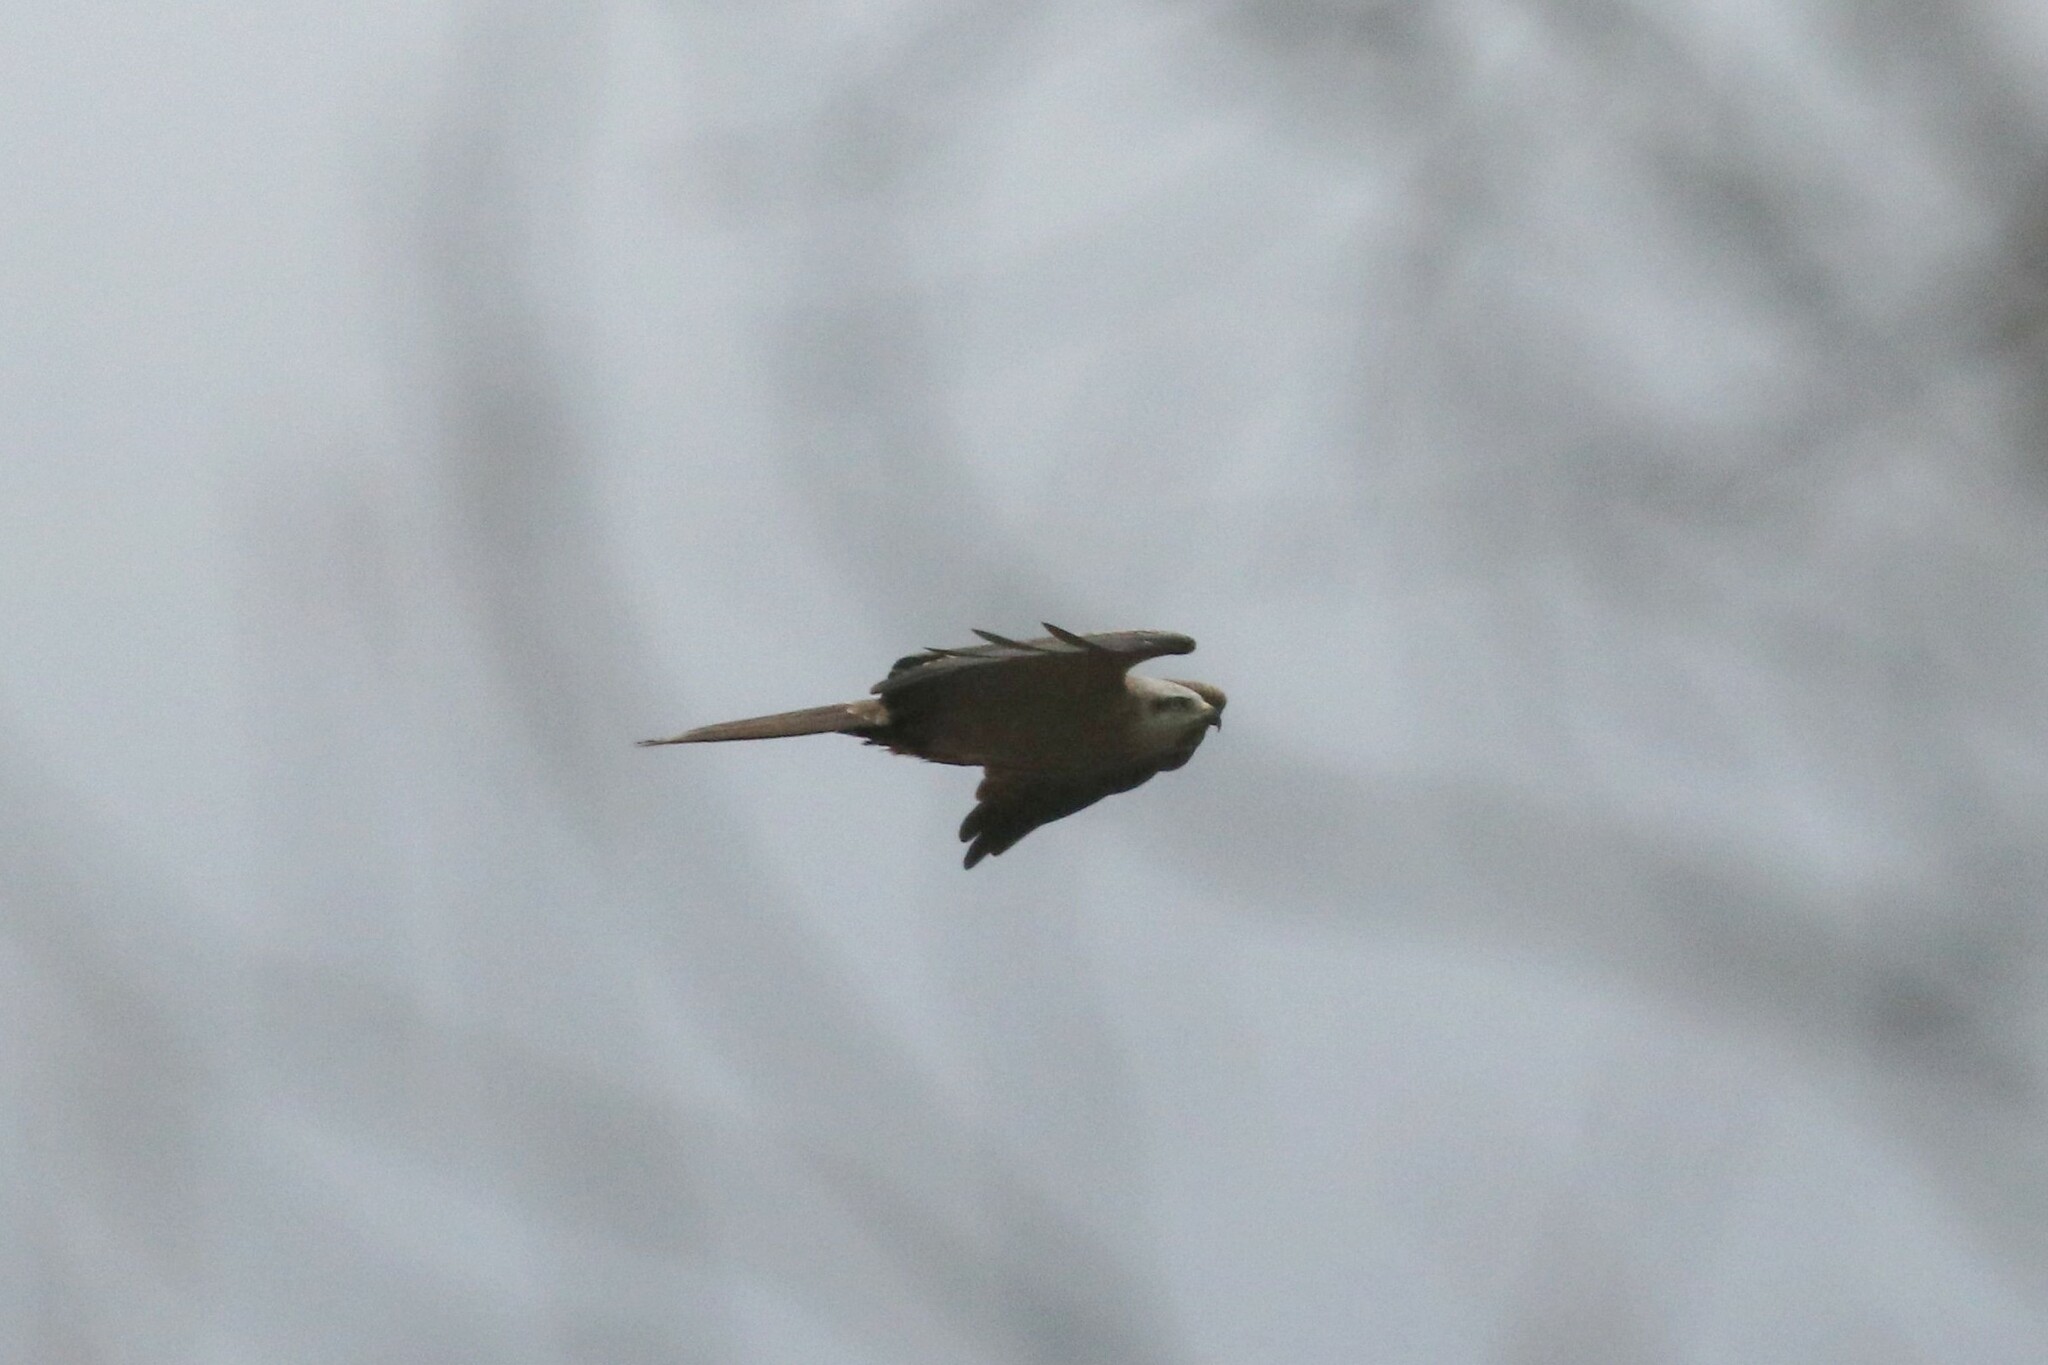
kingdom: Animalia
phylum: Chordata
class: Aves
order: Accipitriformes
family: Accipitridae
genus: Milvus
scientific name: Milvus migrans
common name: Black kite
